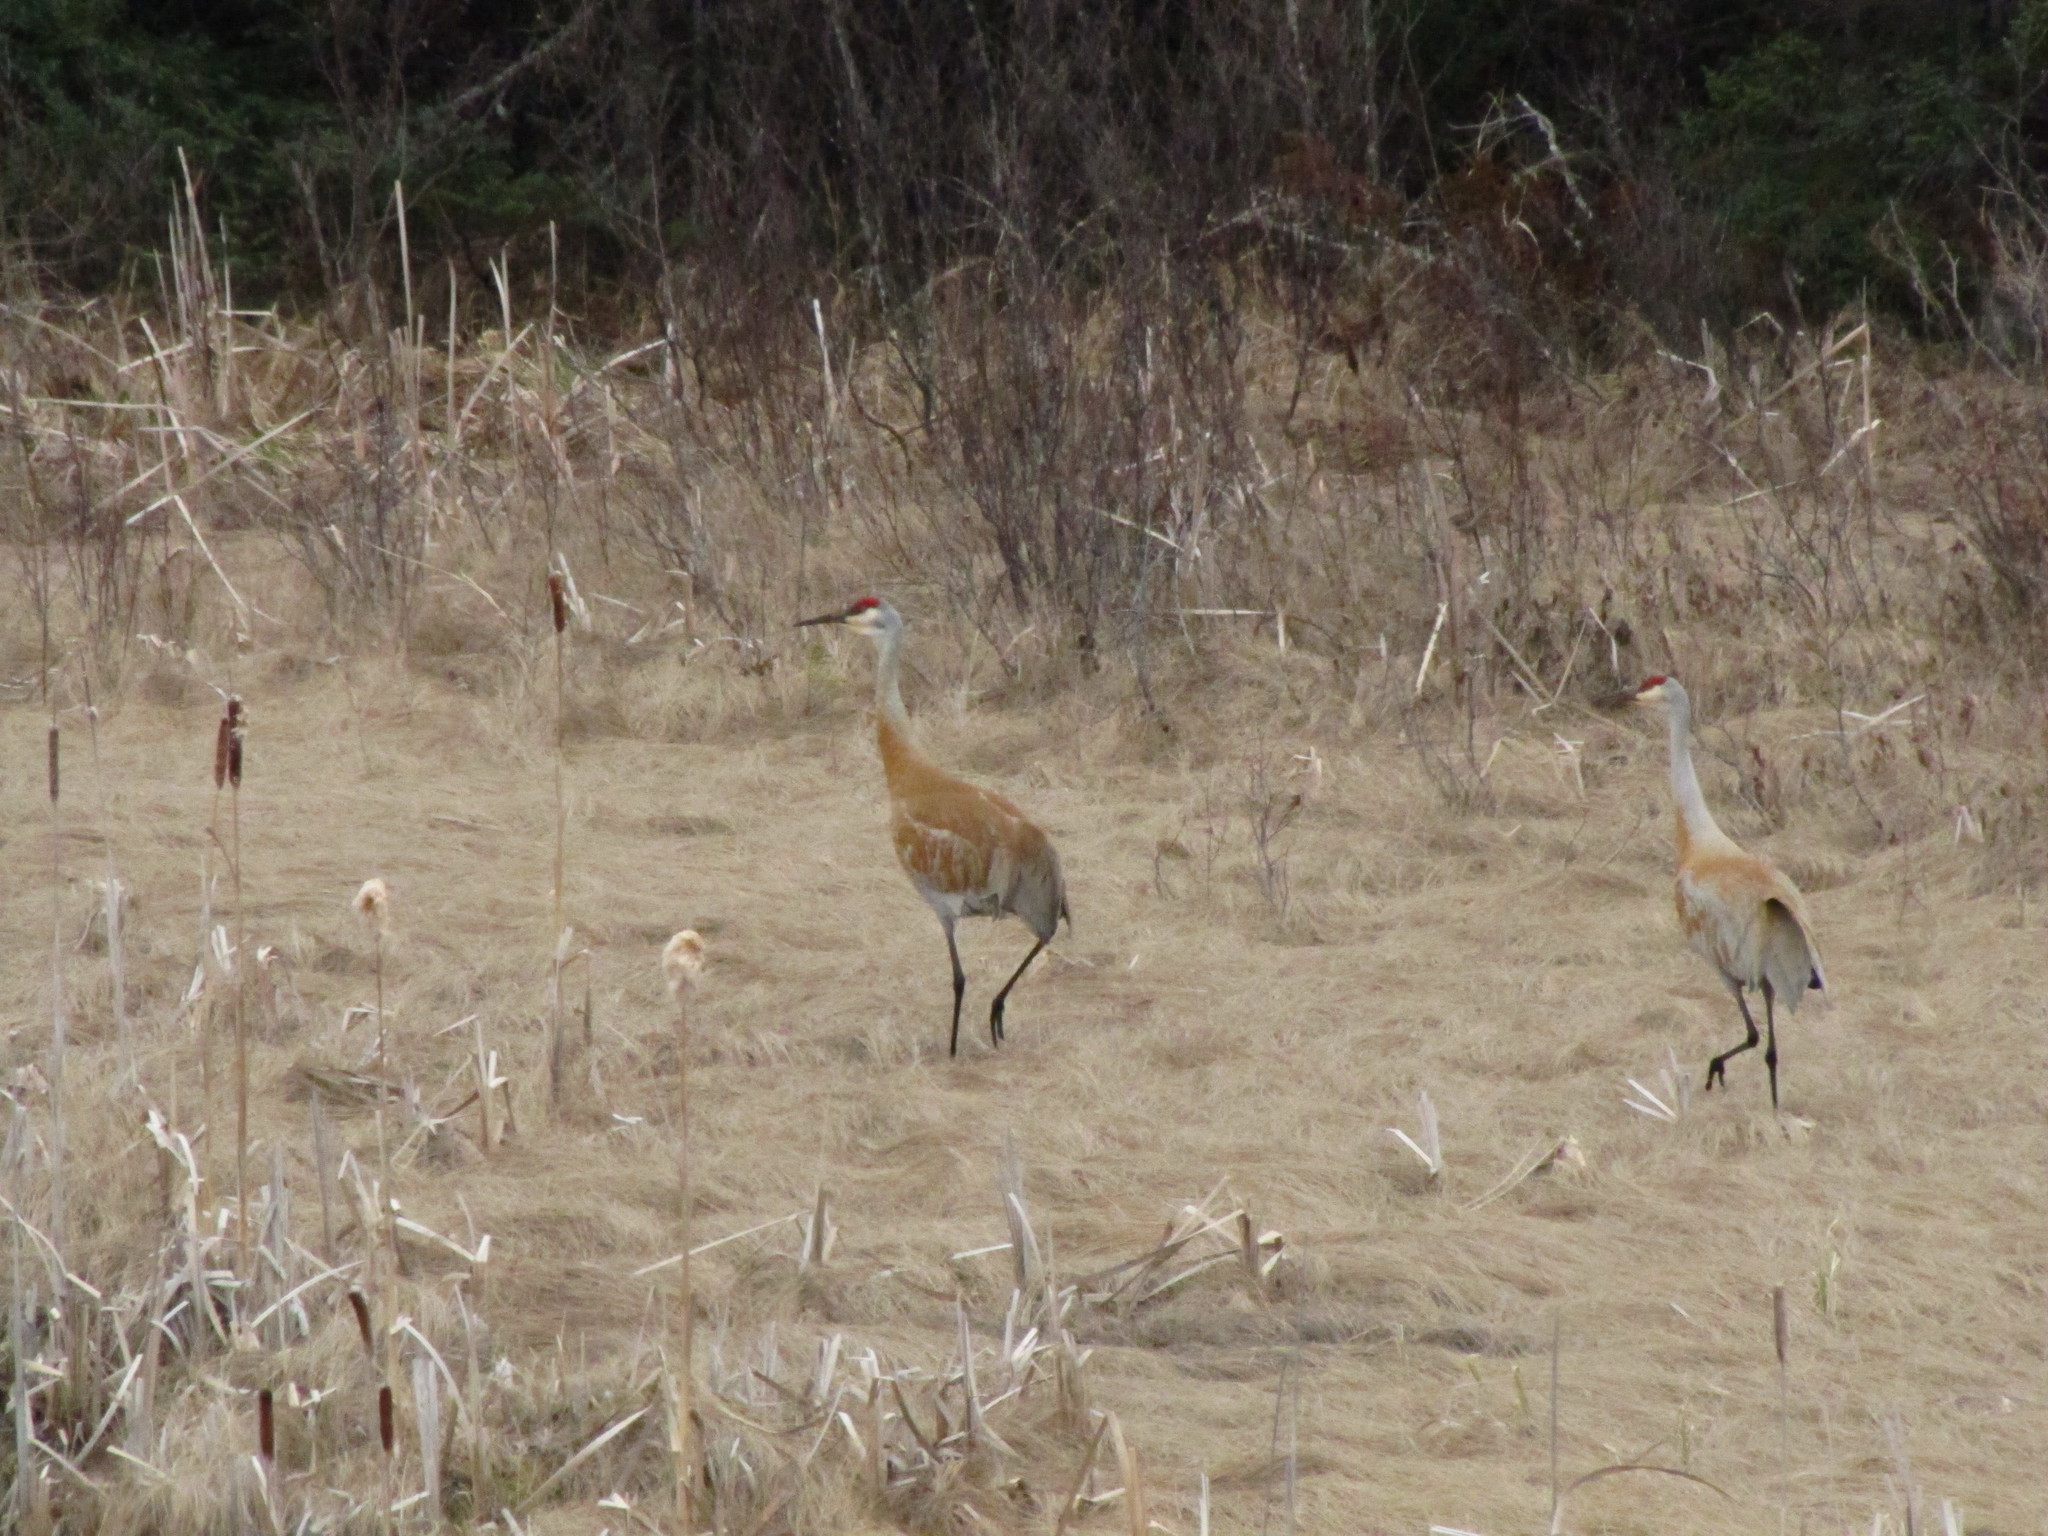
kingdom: Animalia
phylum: Chordata
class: Aves
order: Gruiformes
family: Gruidae
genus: Grus
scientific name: Grus canadensis
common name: Sandhill crane
